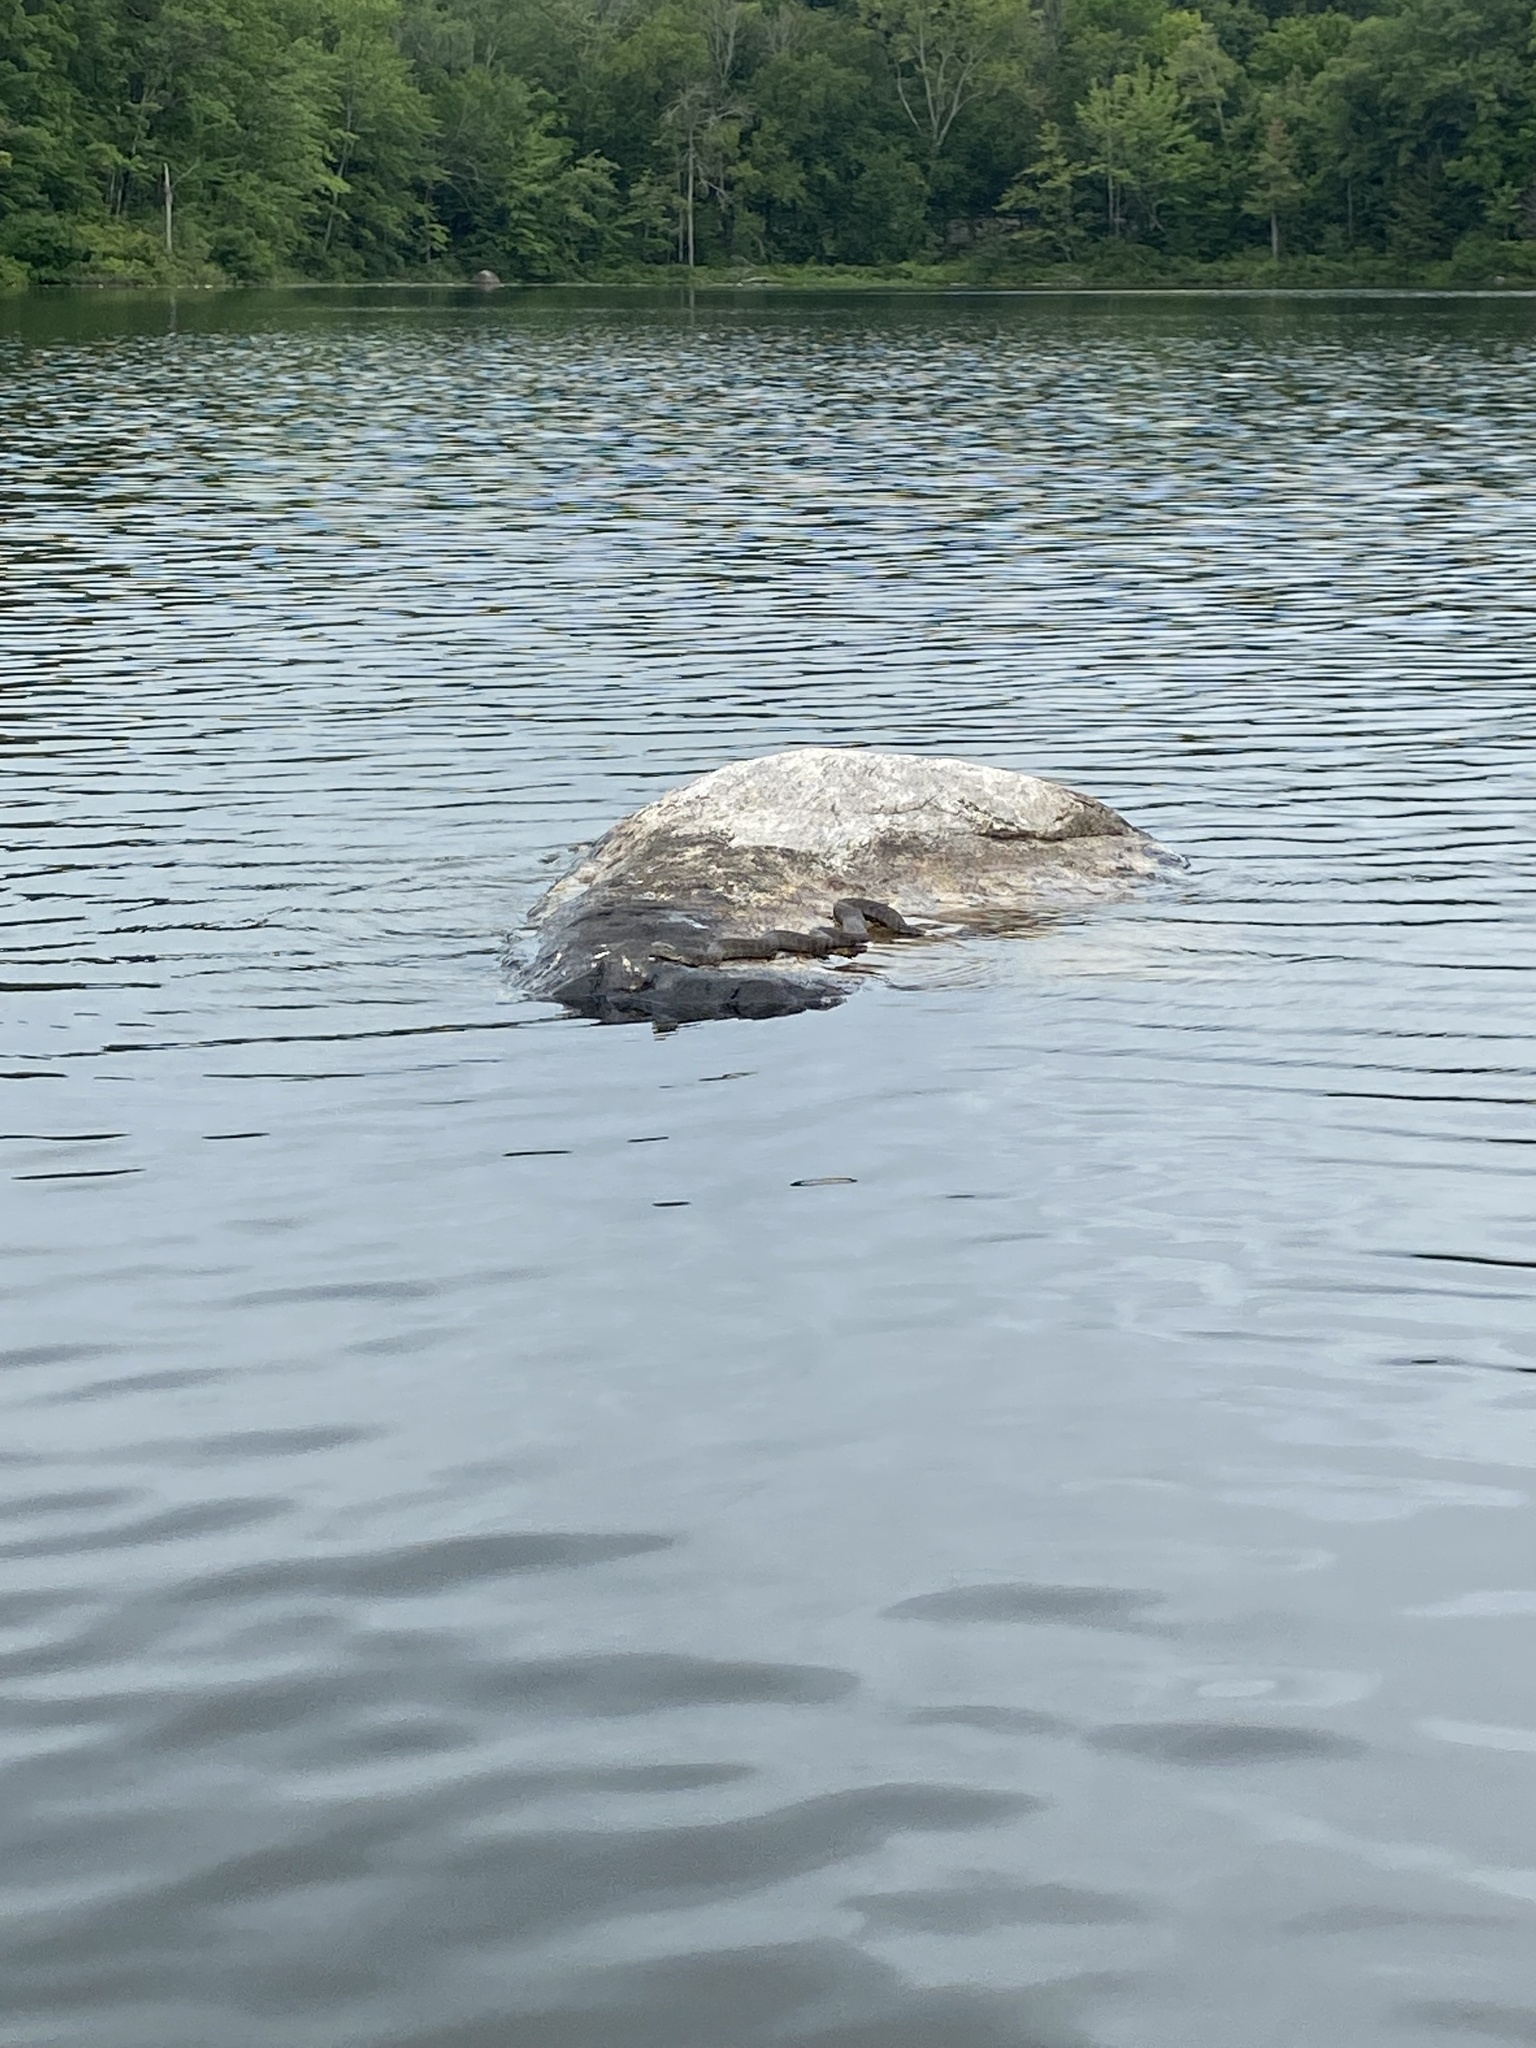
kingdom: Animalia
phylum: Chordata
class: Squamata
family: Colubridae
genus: Nerodia
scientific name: Nerodia sipedon
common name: Northern water snake
